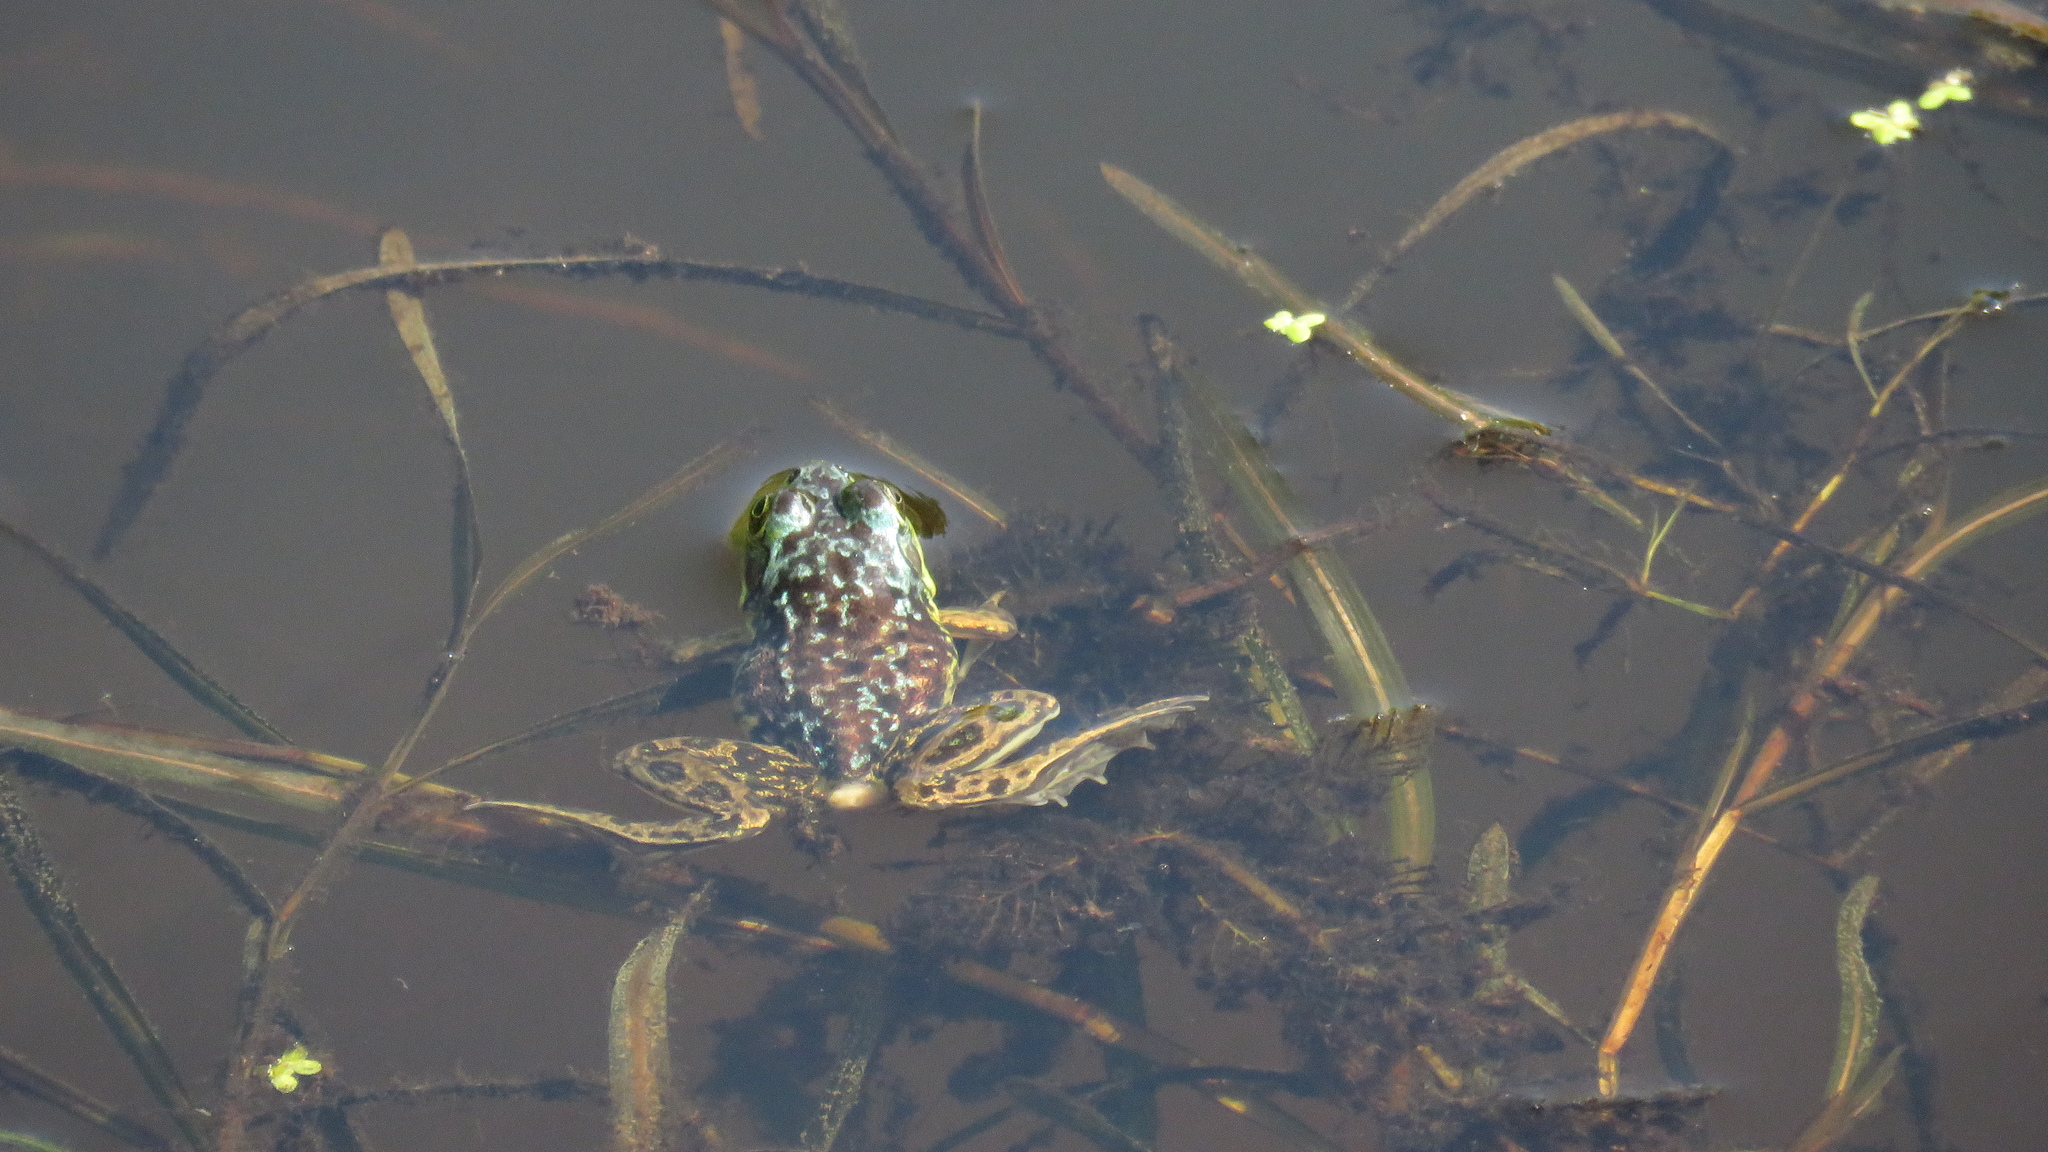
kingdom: Animalia
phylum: Chordata
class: Amphibia
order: Anura
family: Ranidae
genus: Lithobates
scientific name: Lithobates septentrionalis
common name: Mink frog
